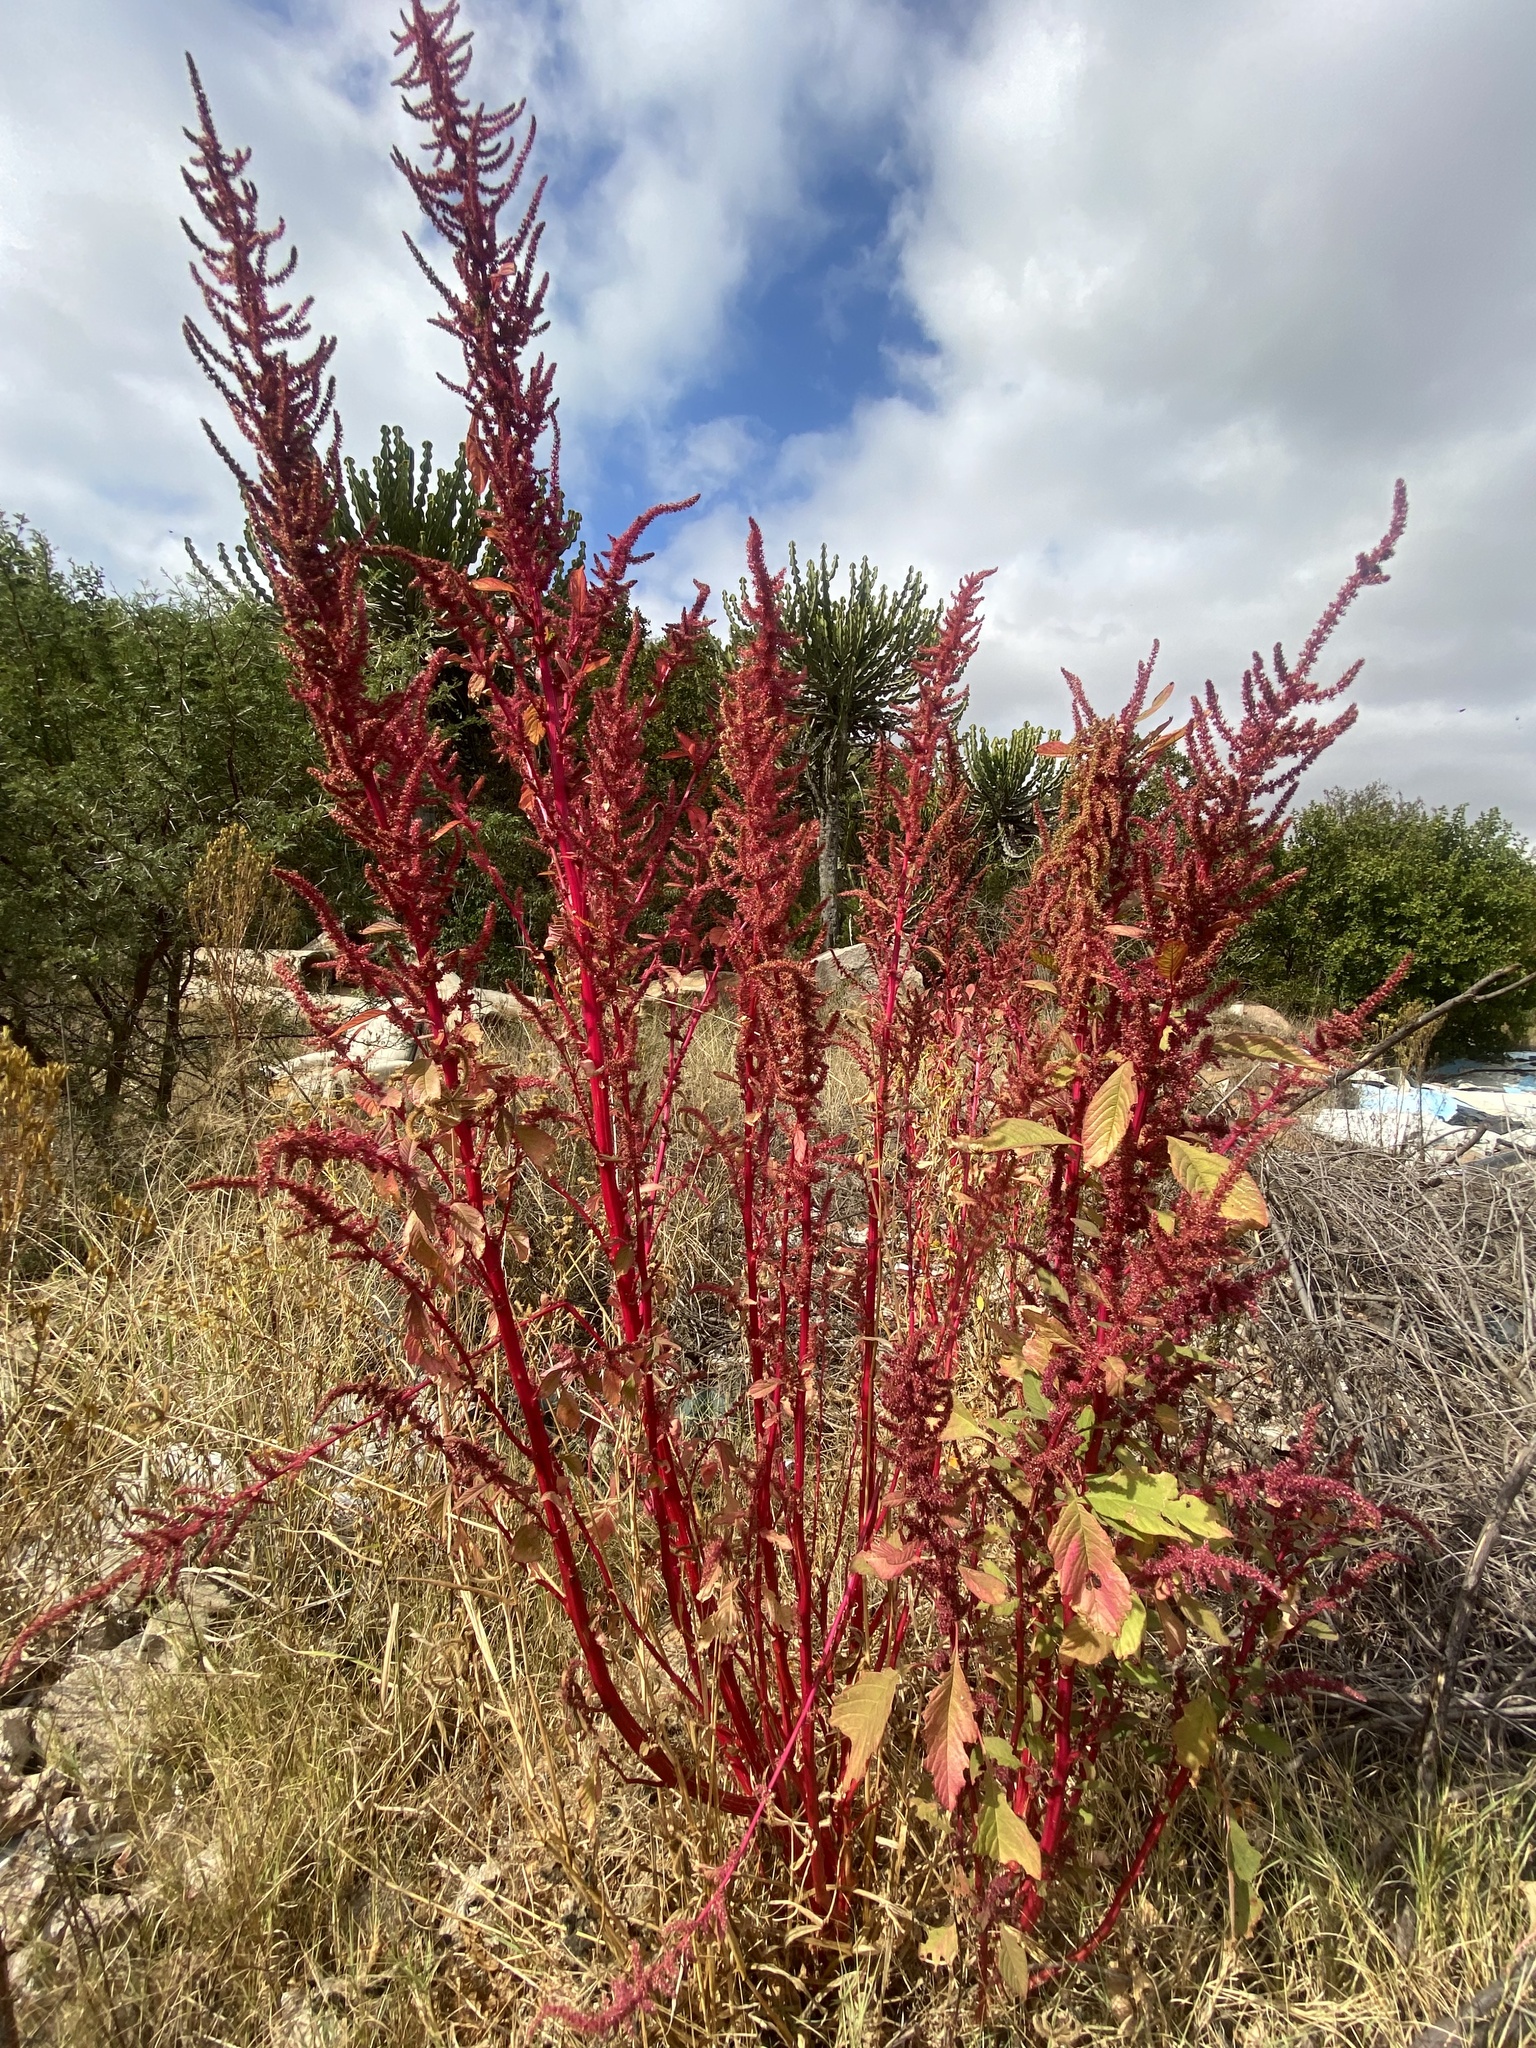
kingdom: Plantae
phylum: Tracheophyta
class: Magnoliopsida
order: Caryophyllales
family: Amaranthaceae
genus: Amaranthus
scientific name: Amaranthus cruentus
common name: Purple amaranth
